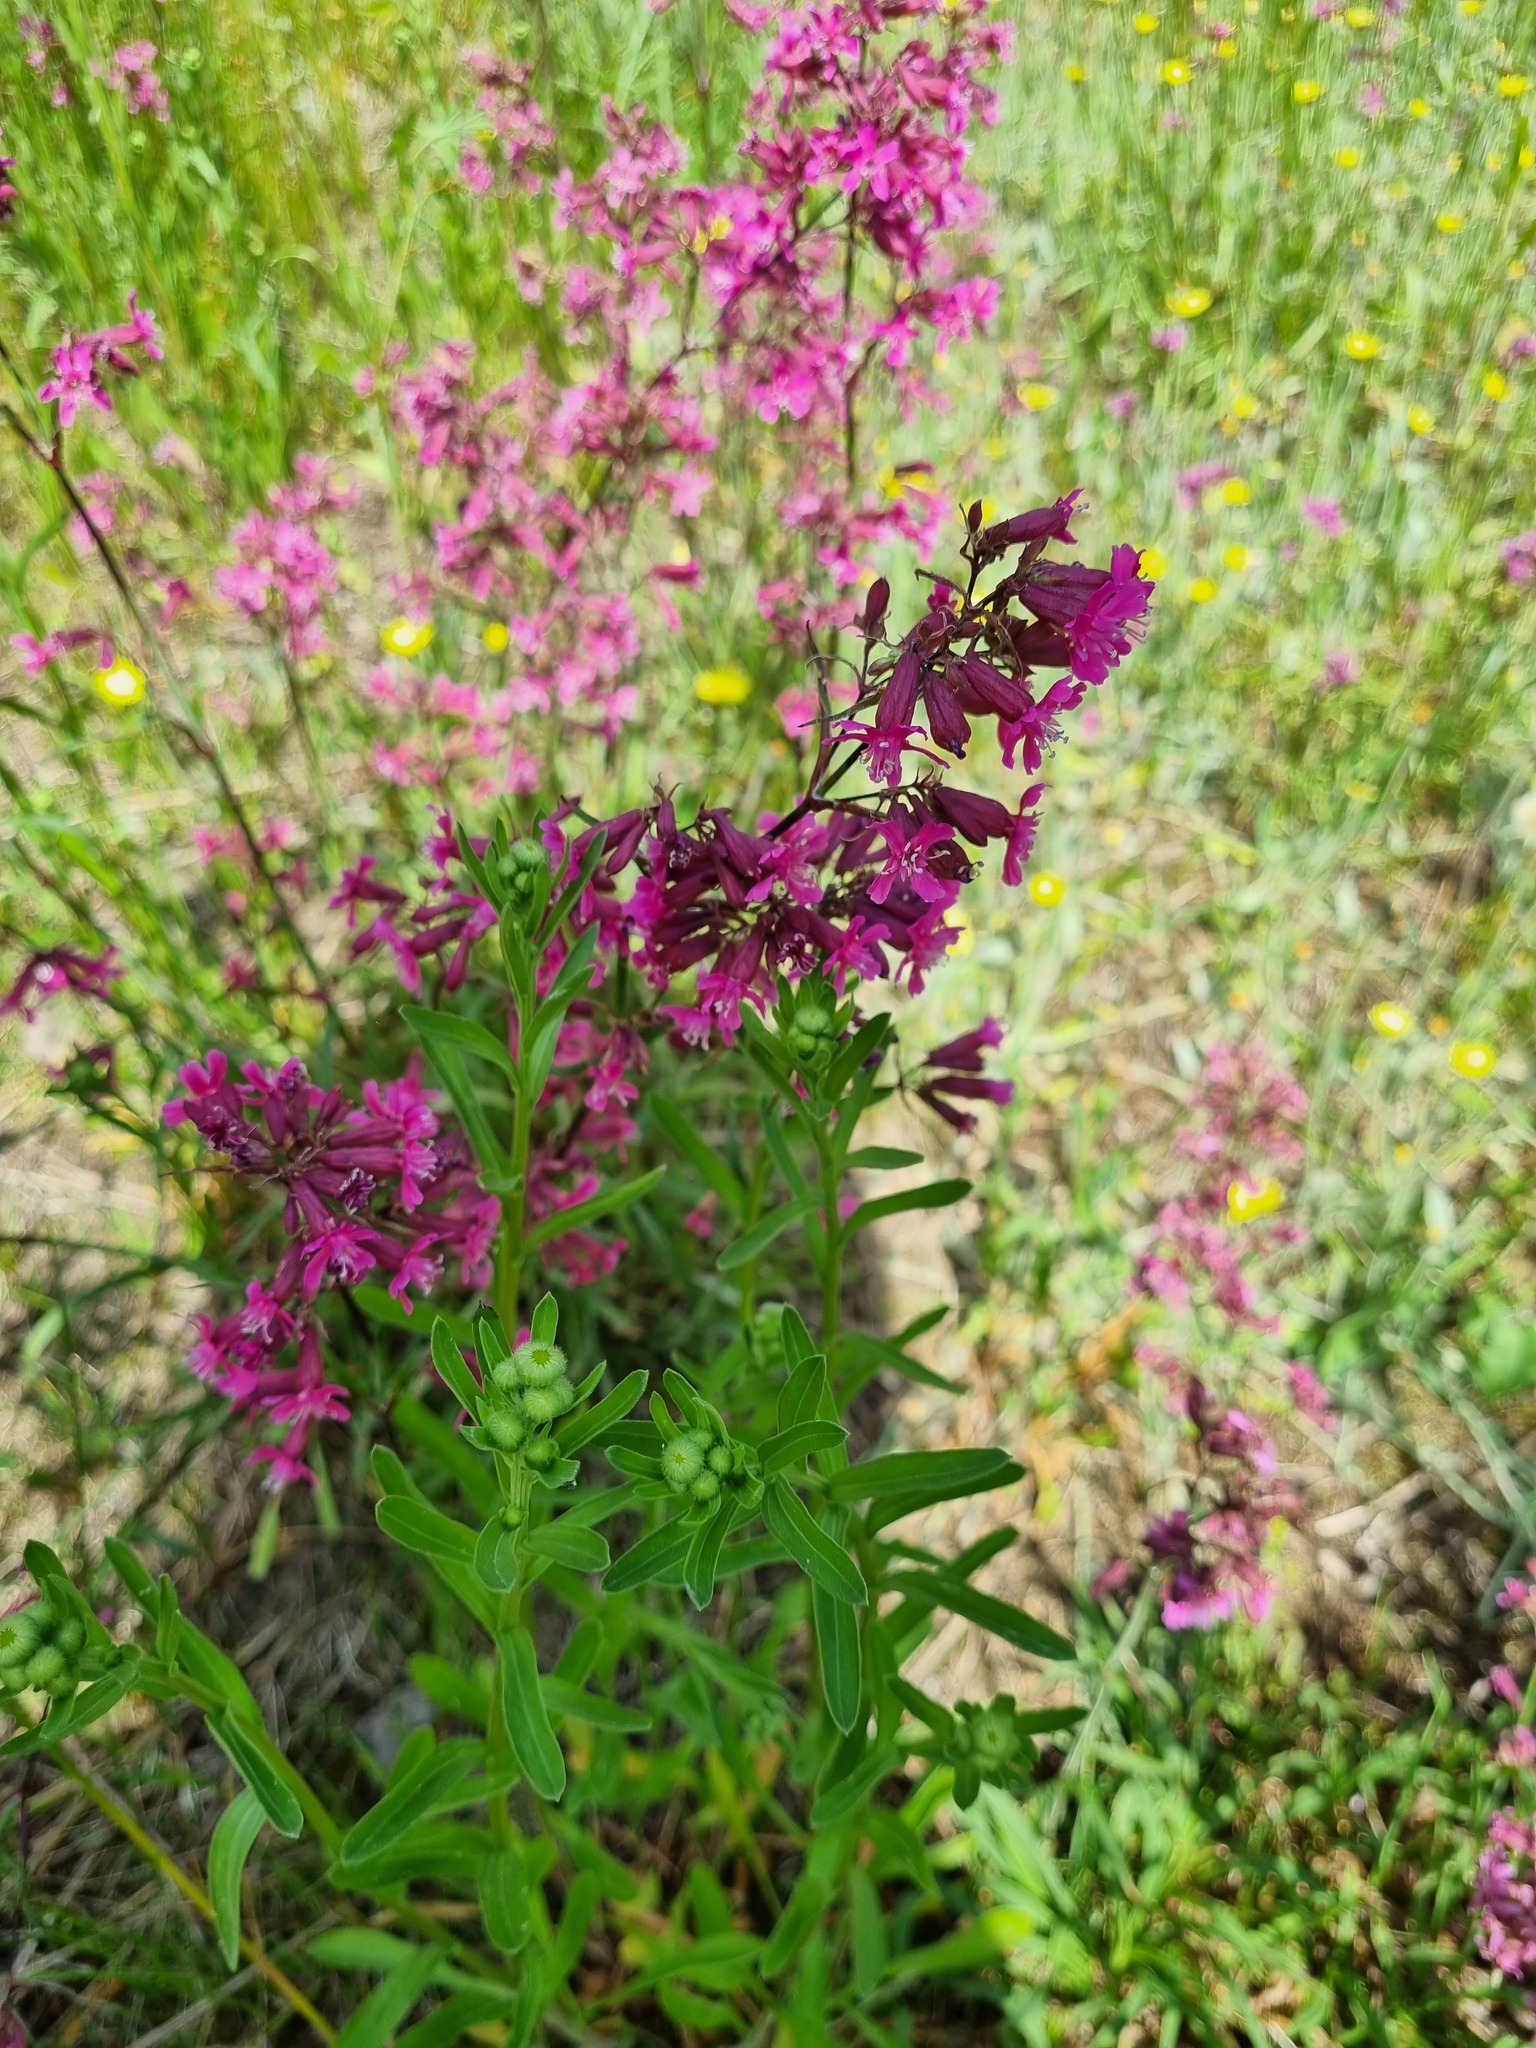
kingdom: Plantae
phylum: Tracheophyta
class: Magnoliopsida
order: Caryophyllales
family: Caryophyllaceae
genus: Viscaria
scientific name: Viscaria vulgaris
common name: Clammy campion
